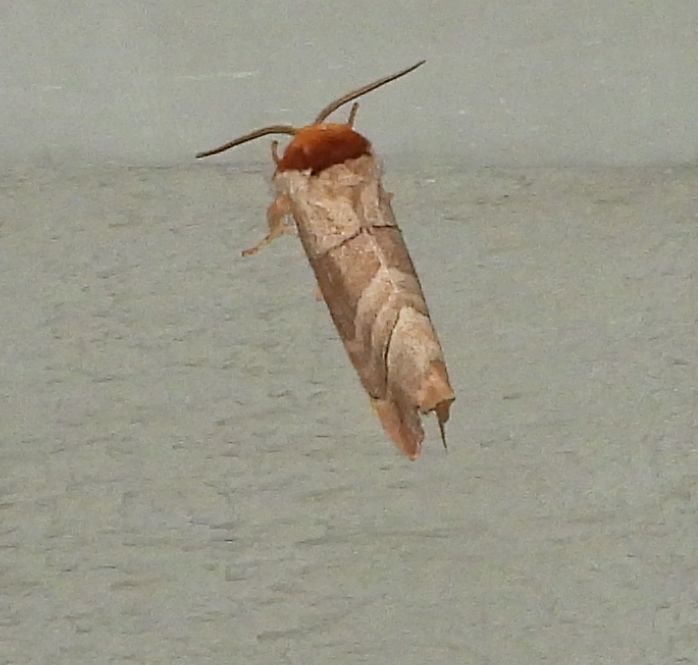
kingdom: Animalia
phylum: Arthropoda
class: Insecta
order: Lepidoptera
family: Notodontidae
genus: Datana
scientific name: Datana integerrima
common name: Walnut caterpillar
